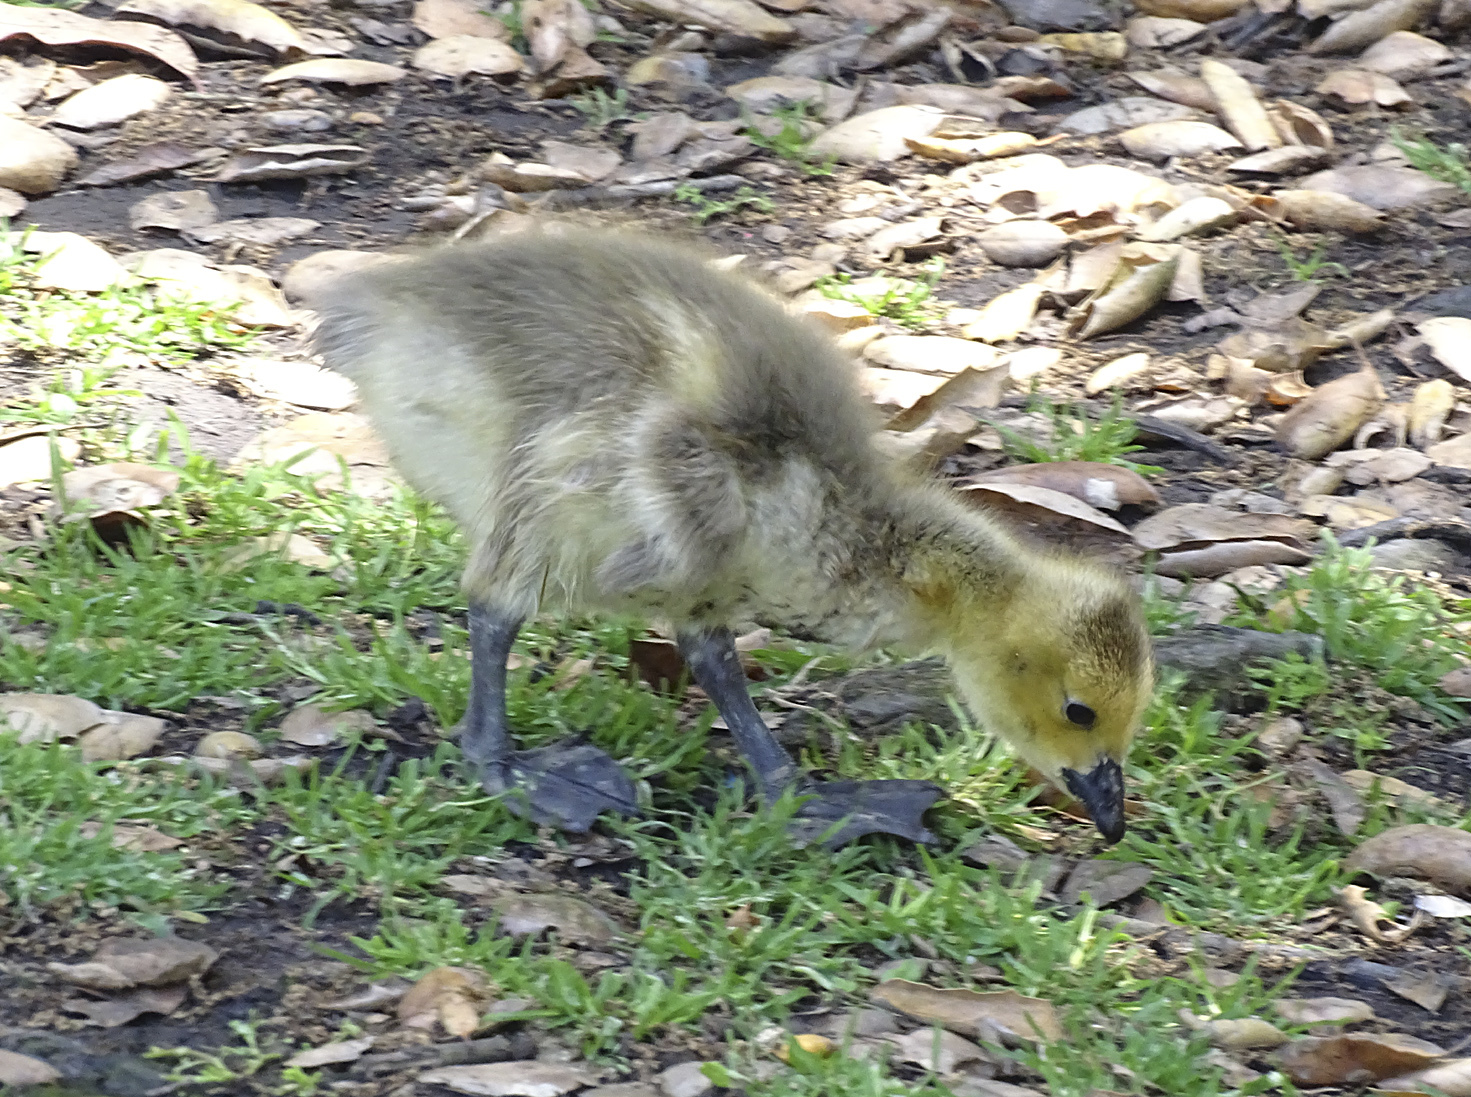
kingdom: Animalia
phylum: Chordata
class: Aves
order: Anseriformes
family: Anatidae
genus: Branta
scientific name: Branta canadensis
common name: Canada goose
